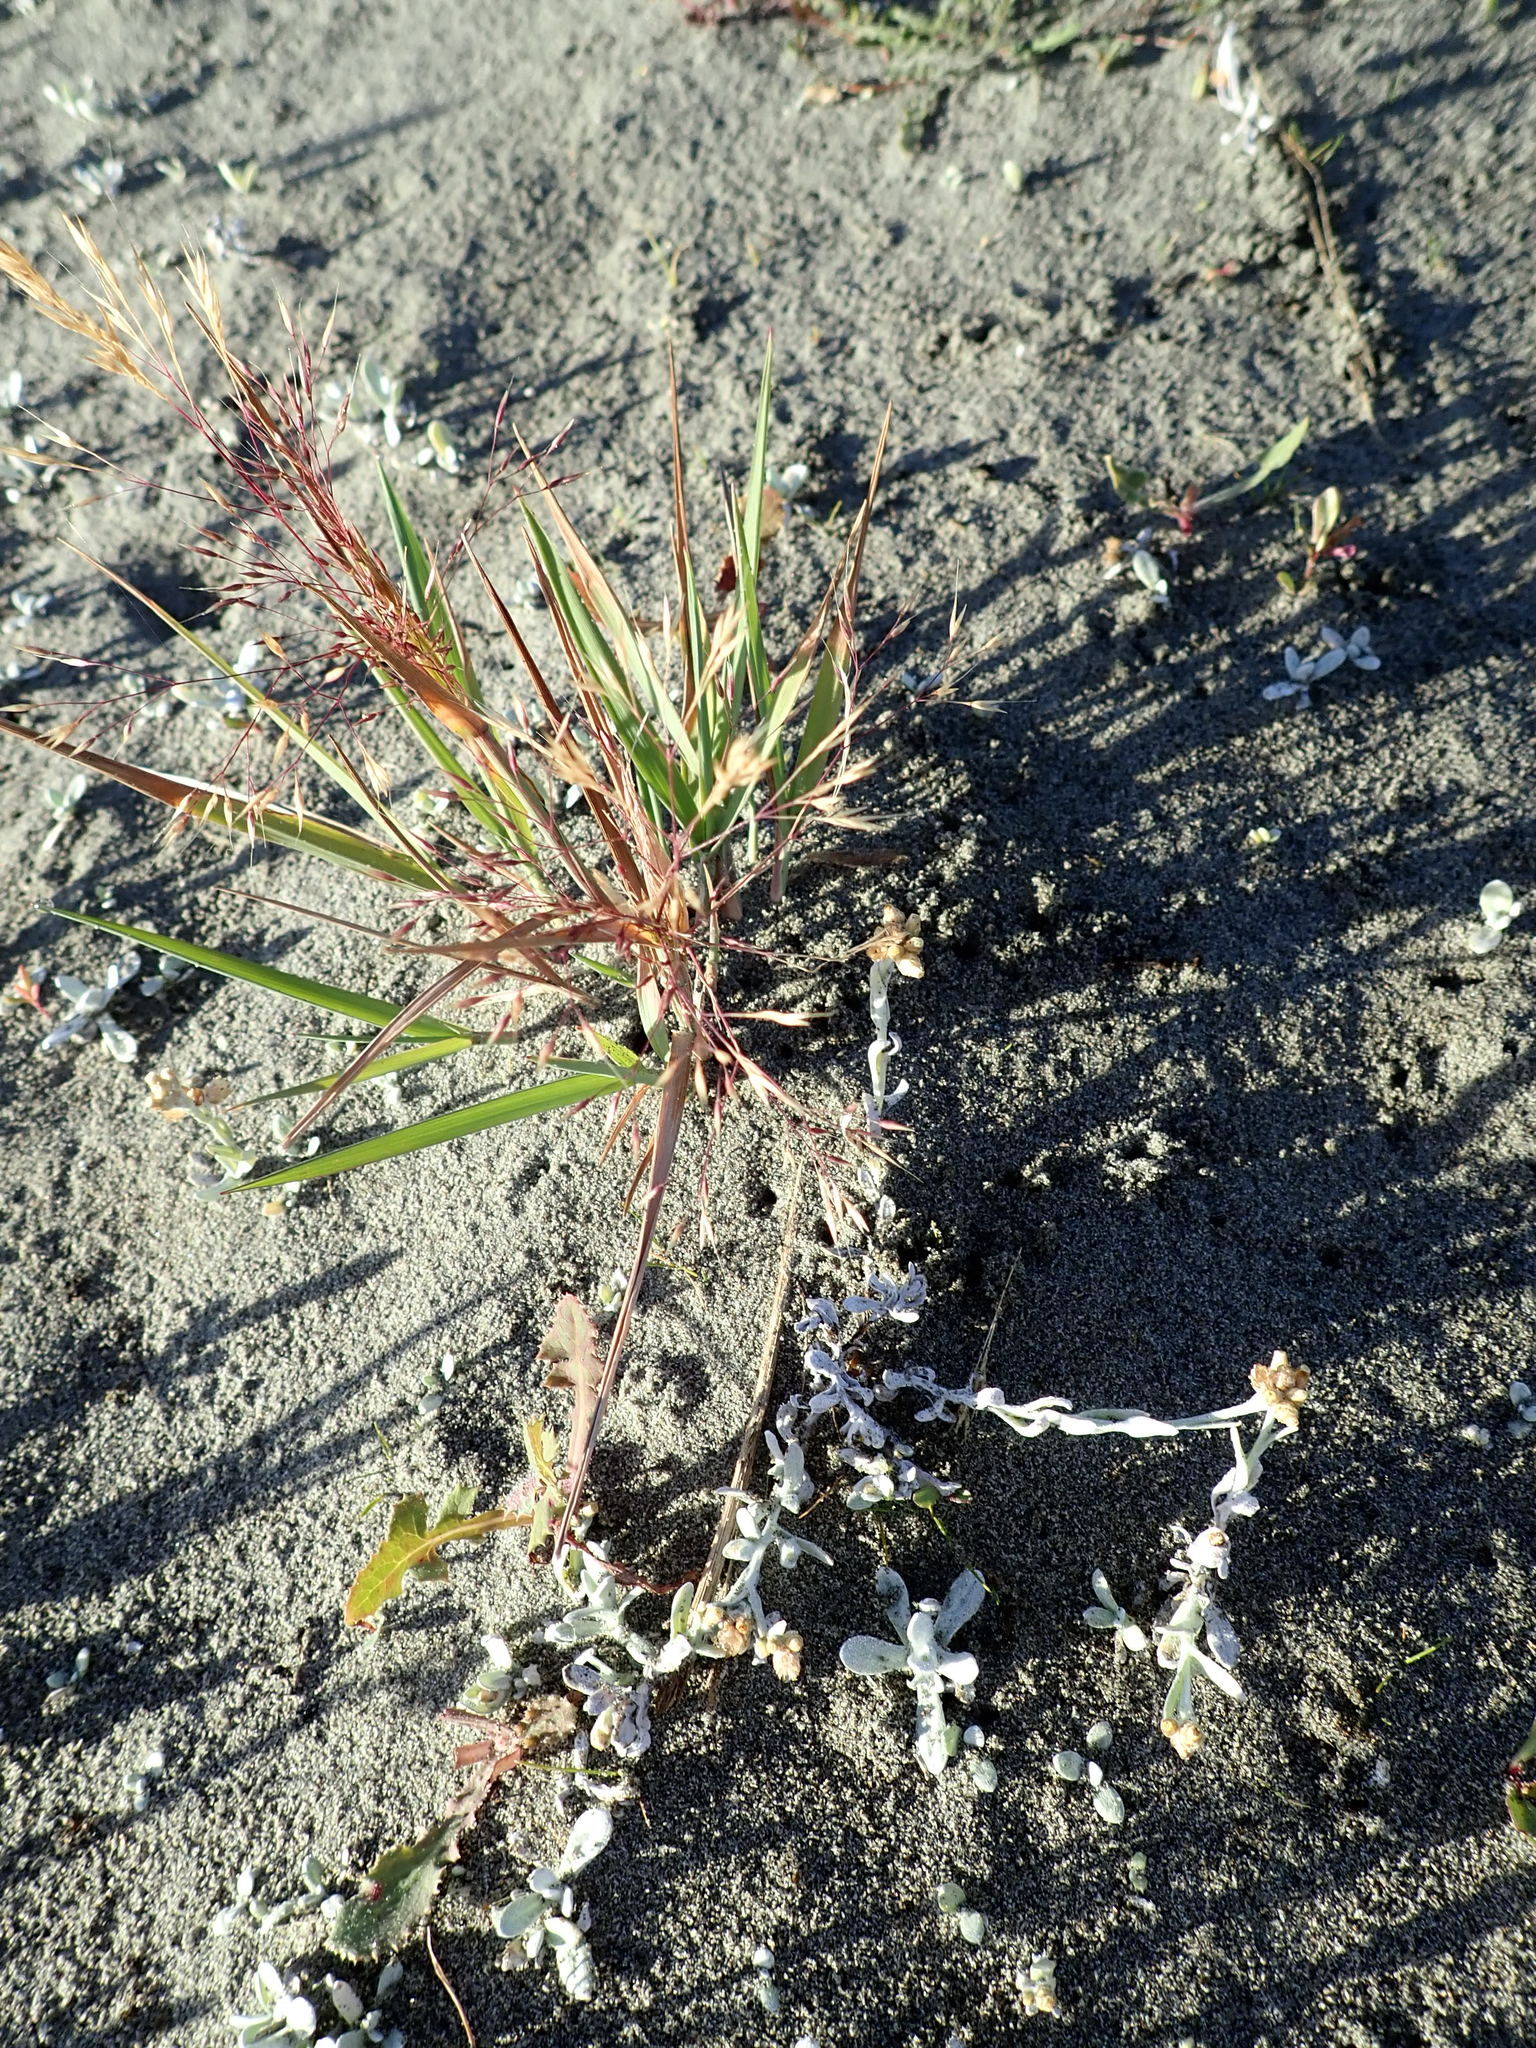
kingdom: Plantae
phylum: Tracheophyta
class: Liliopsida
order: Poales
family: Poaceae
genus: Lachnagrostis
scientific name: Lachnagrostis billardierei
